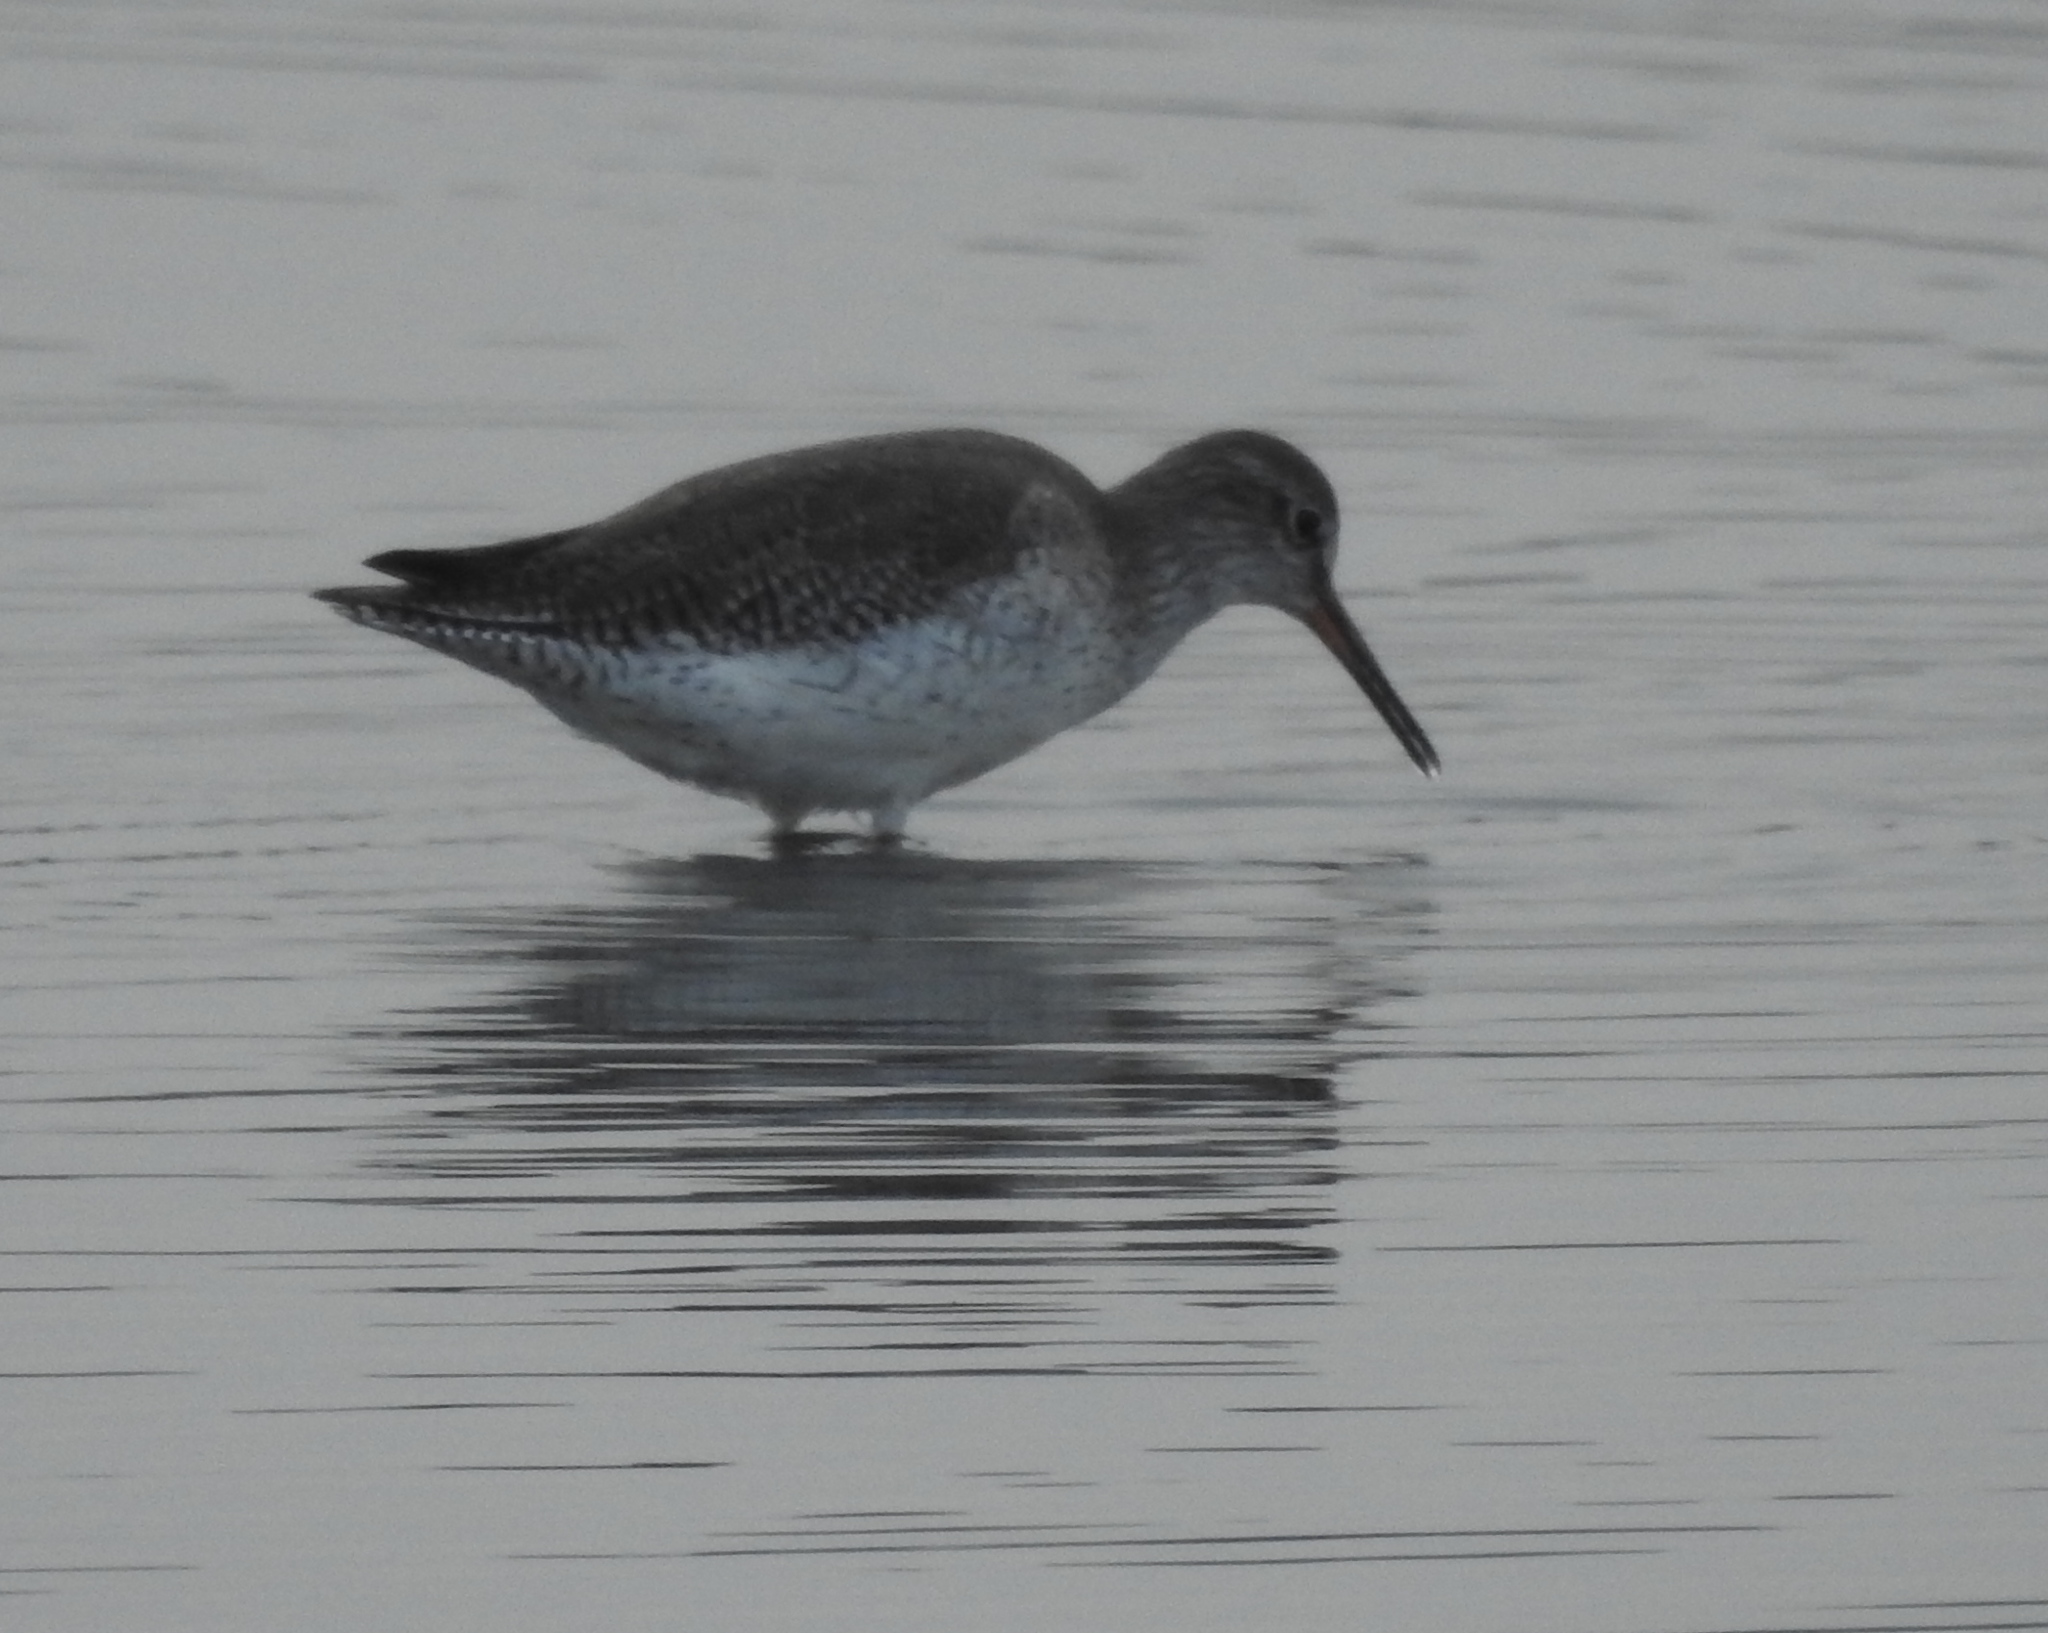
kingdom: Animalia
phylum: Chordata
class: Aves
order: Charadriiformes
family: Scolopacidae
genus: Tringa
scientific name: Tringa totanus
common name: Common redshank
